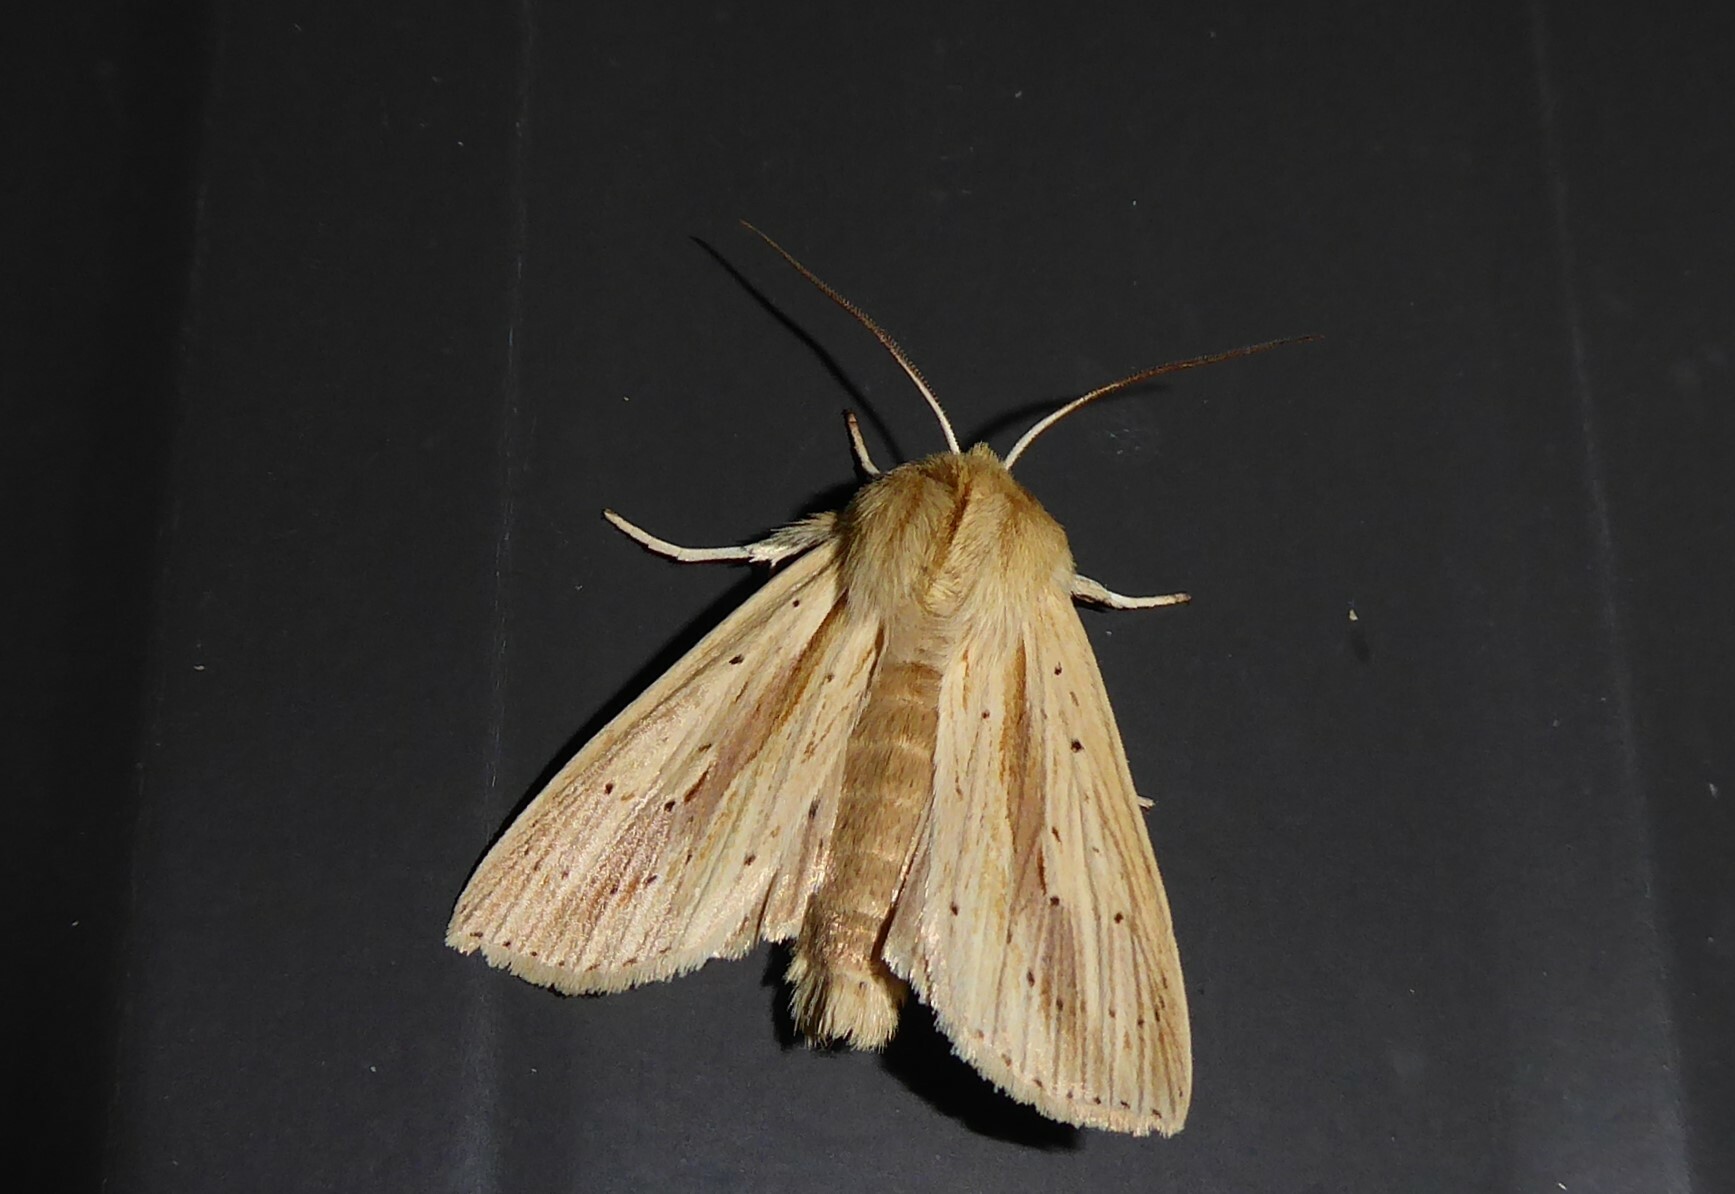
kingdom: Animalia
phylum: Arthropoda
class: Insecta
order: Lepidoptera
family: Noctuidae
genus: Ichneutica
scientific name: Ichneutica semivittata
